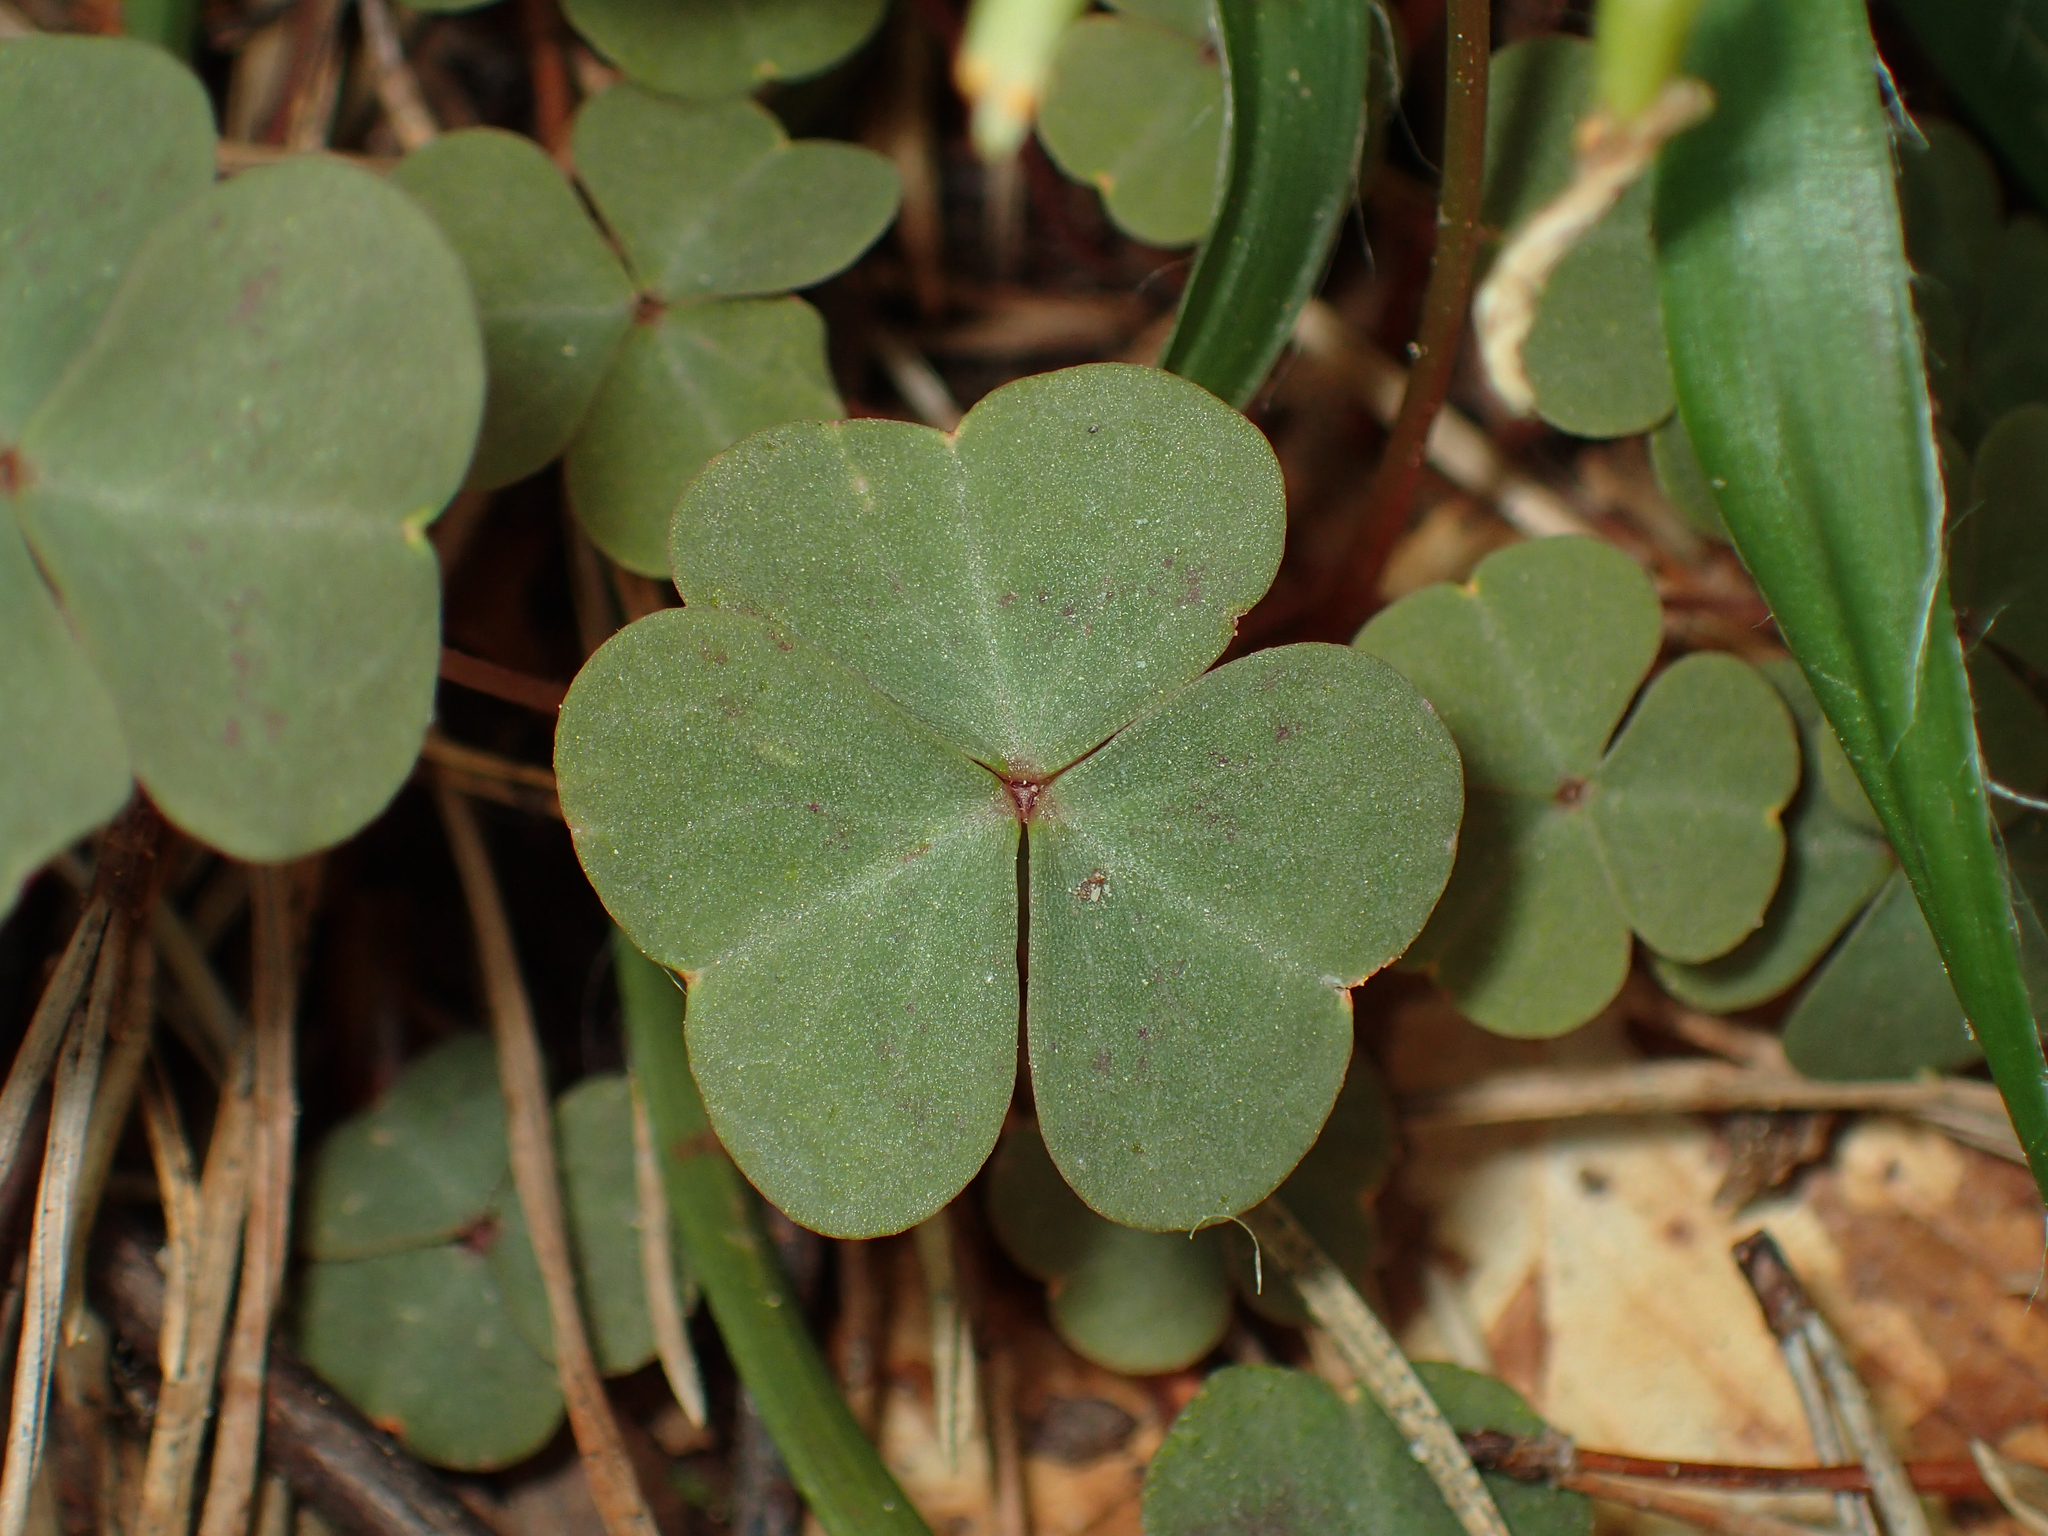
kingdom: Plantae
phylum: Tracheophyta
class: Magnoliopsida
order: Oxalidales
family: Oxalidaceae
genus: Oxalis
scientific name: Oxalis violacea
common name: Violet wood-sorrel
